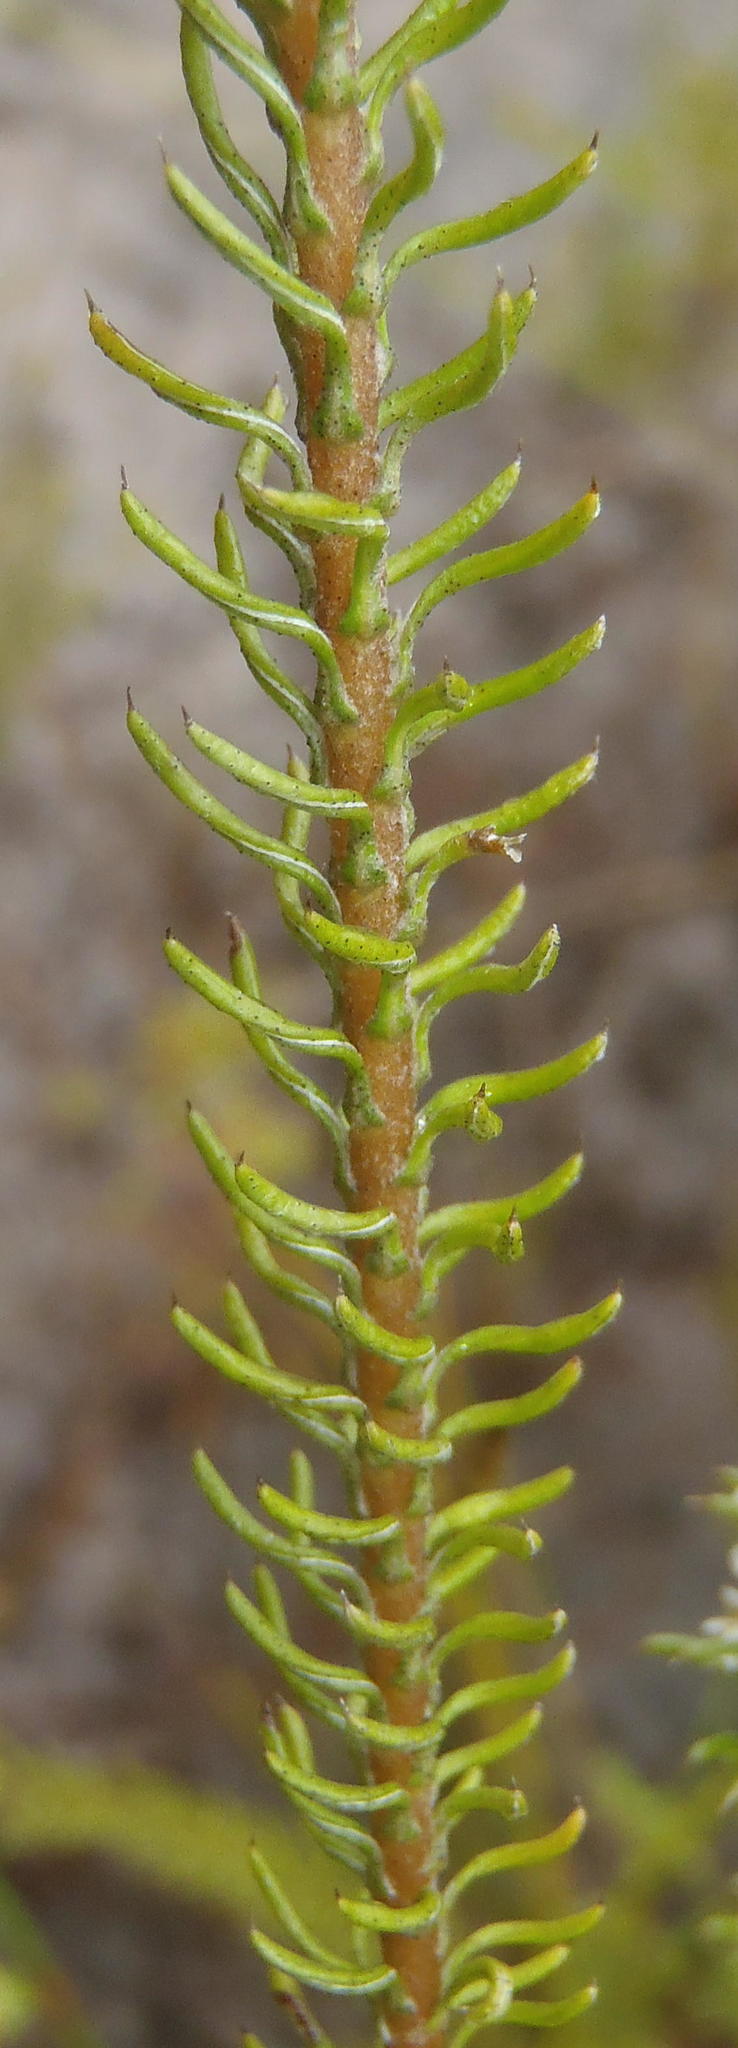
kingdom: Plantae
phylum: Tracheophyta
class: Magnoliopsida
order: Asterales
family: Asteraceae
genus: Disparago
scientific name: Disparago anomala
